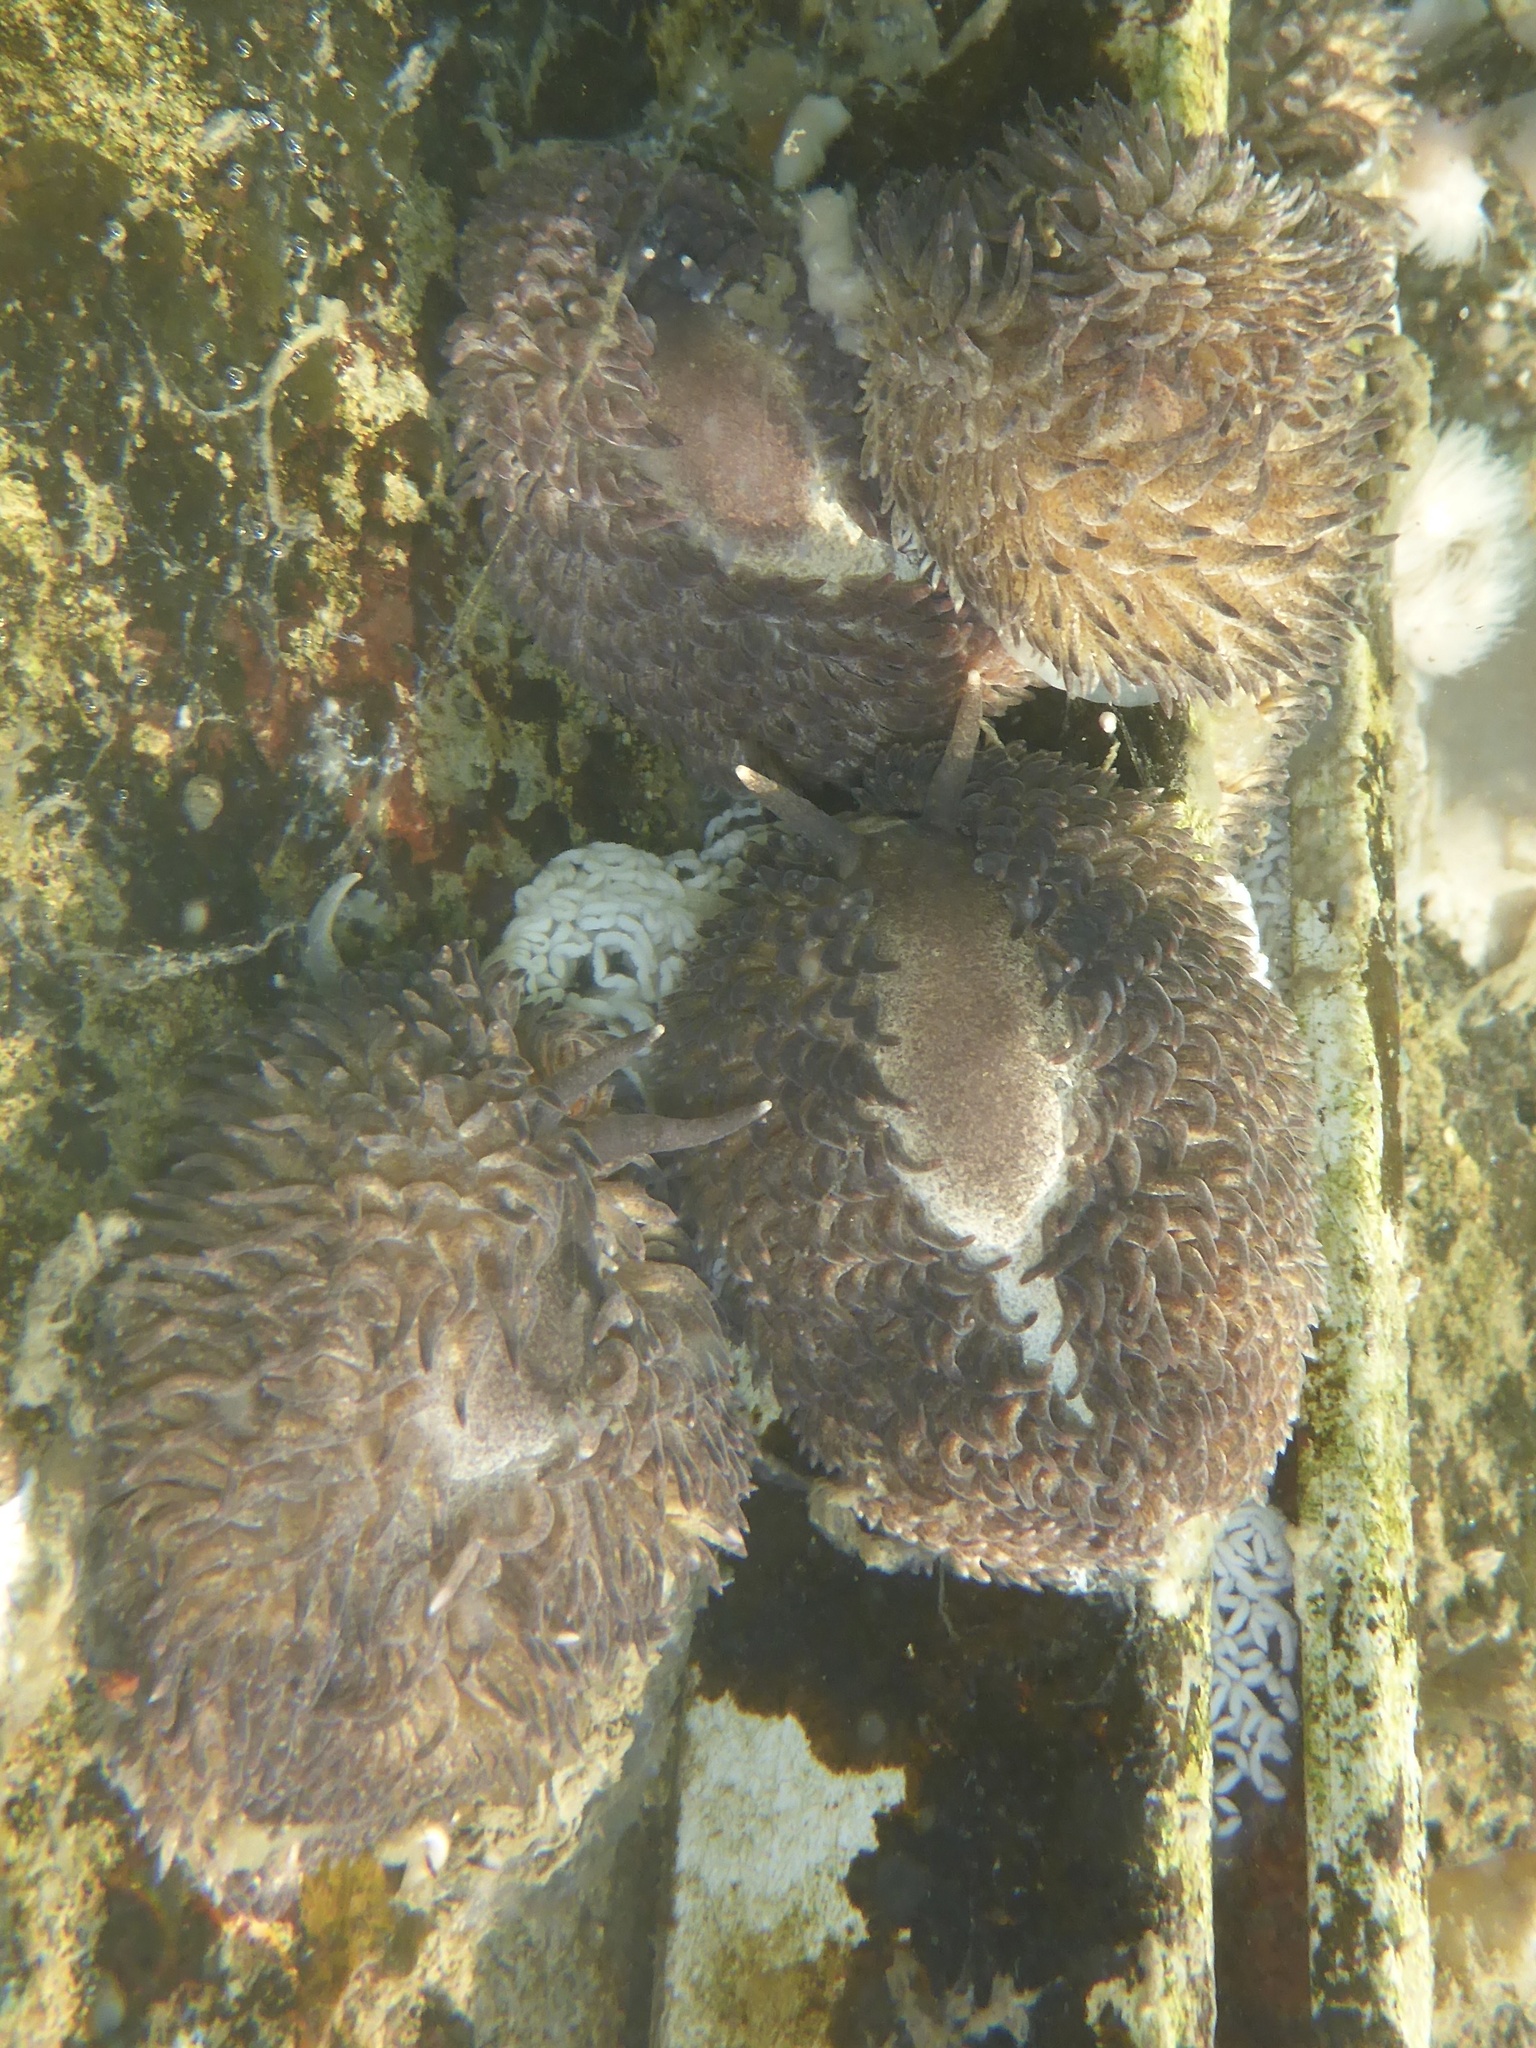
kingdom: Animalia
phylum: Mollusca
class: Gastropoda
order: Nudibranchia
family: Aeolidiidae
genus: Aeolidia
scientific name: Aeolidia papillosa
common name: Common grey sea slug
